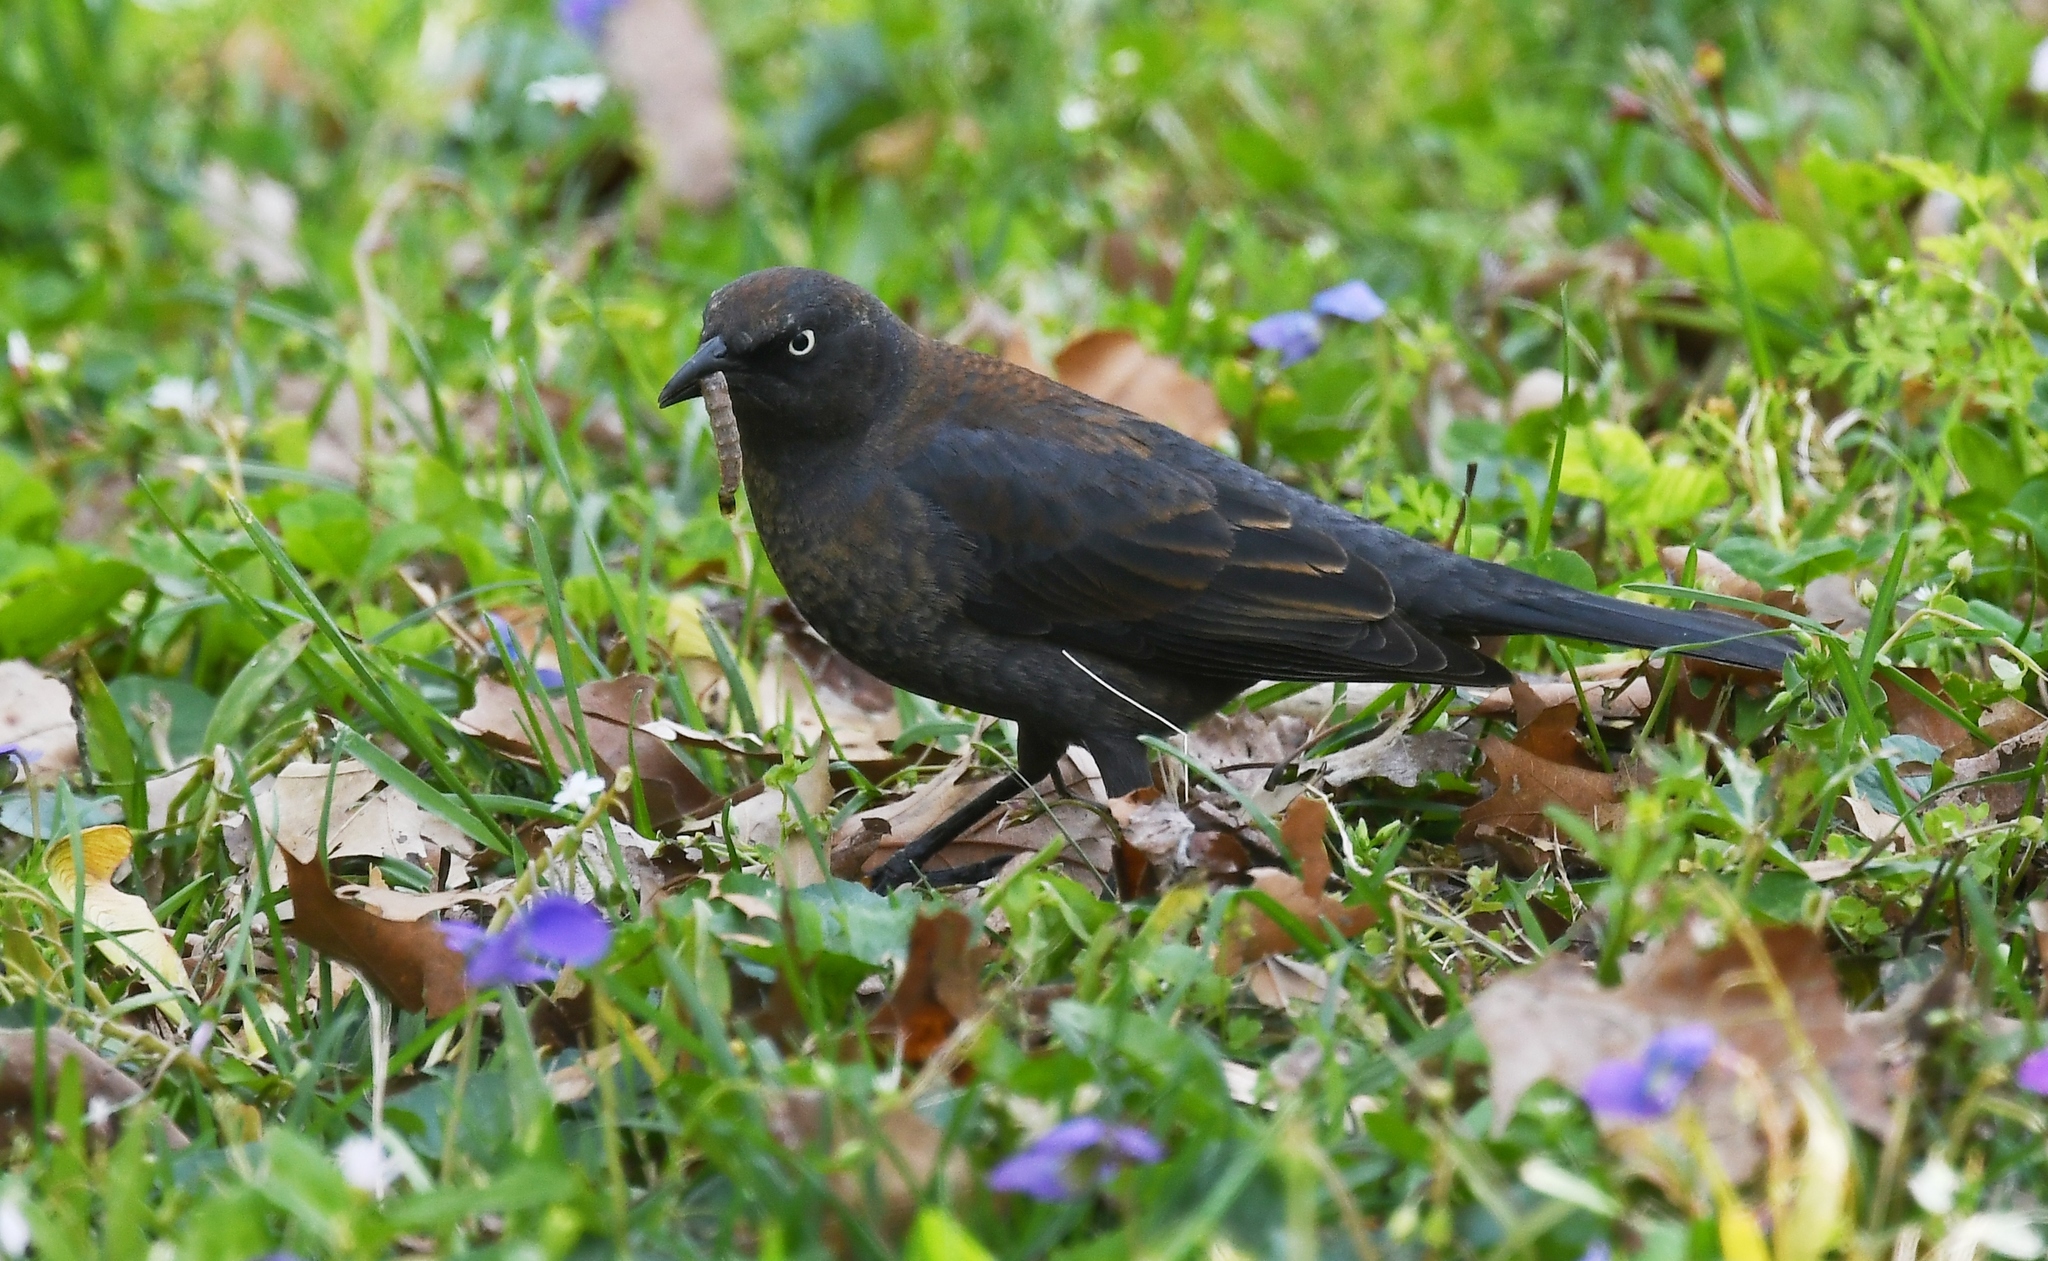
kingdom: Animalia
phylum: Chordata
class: Aves
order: Passeriformes
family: Icteridae
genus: Euphagus
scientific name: Euphagus carolinus
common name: Rusty blackbird
